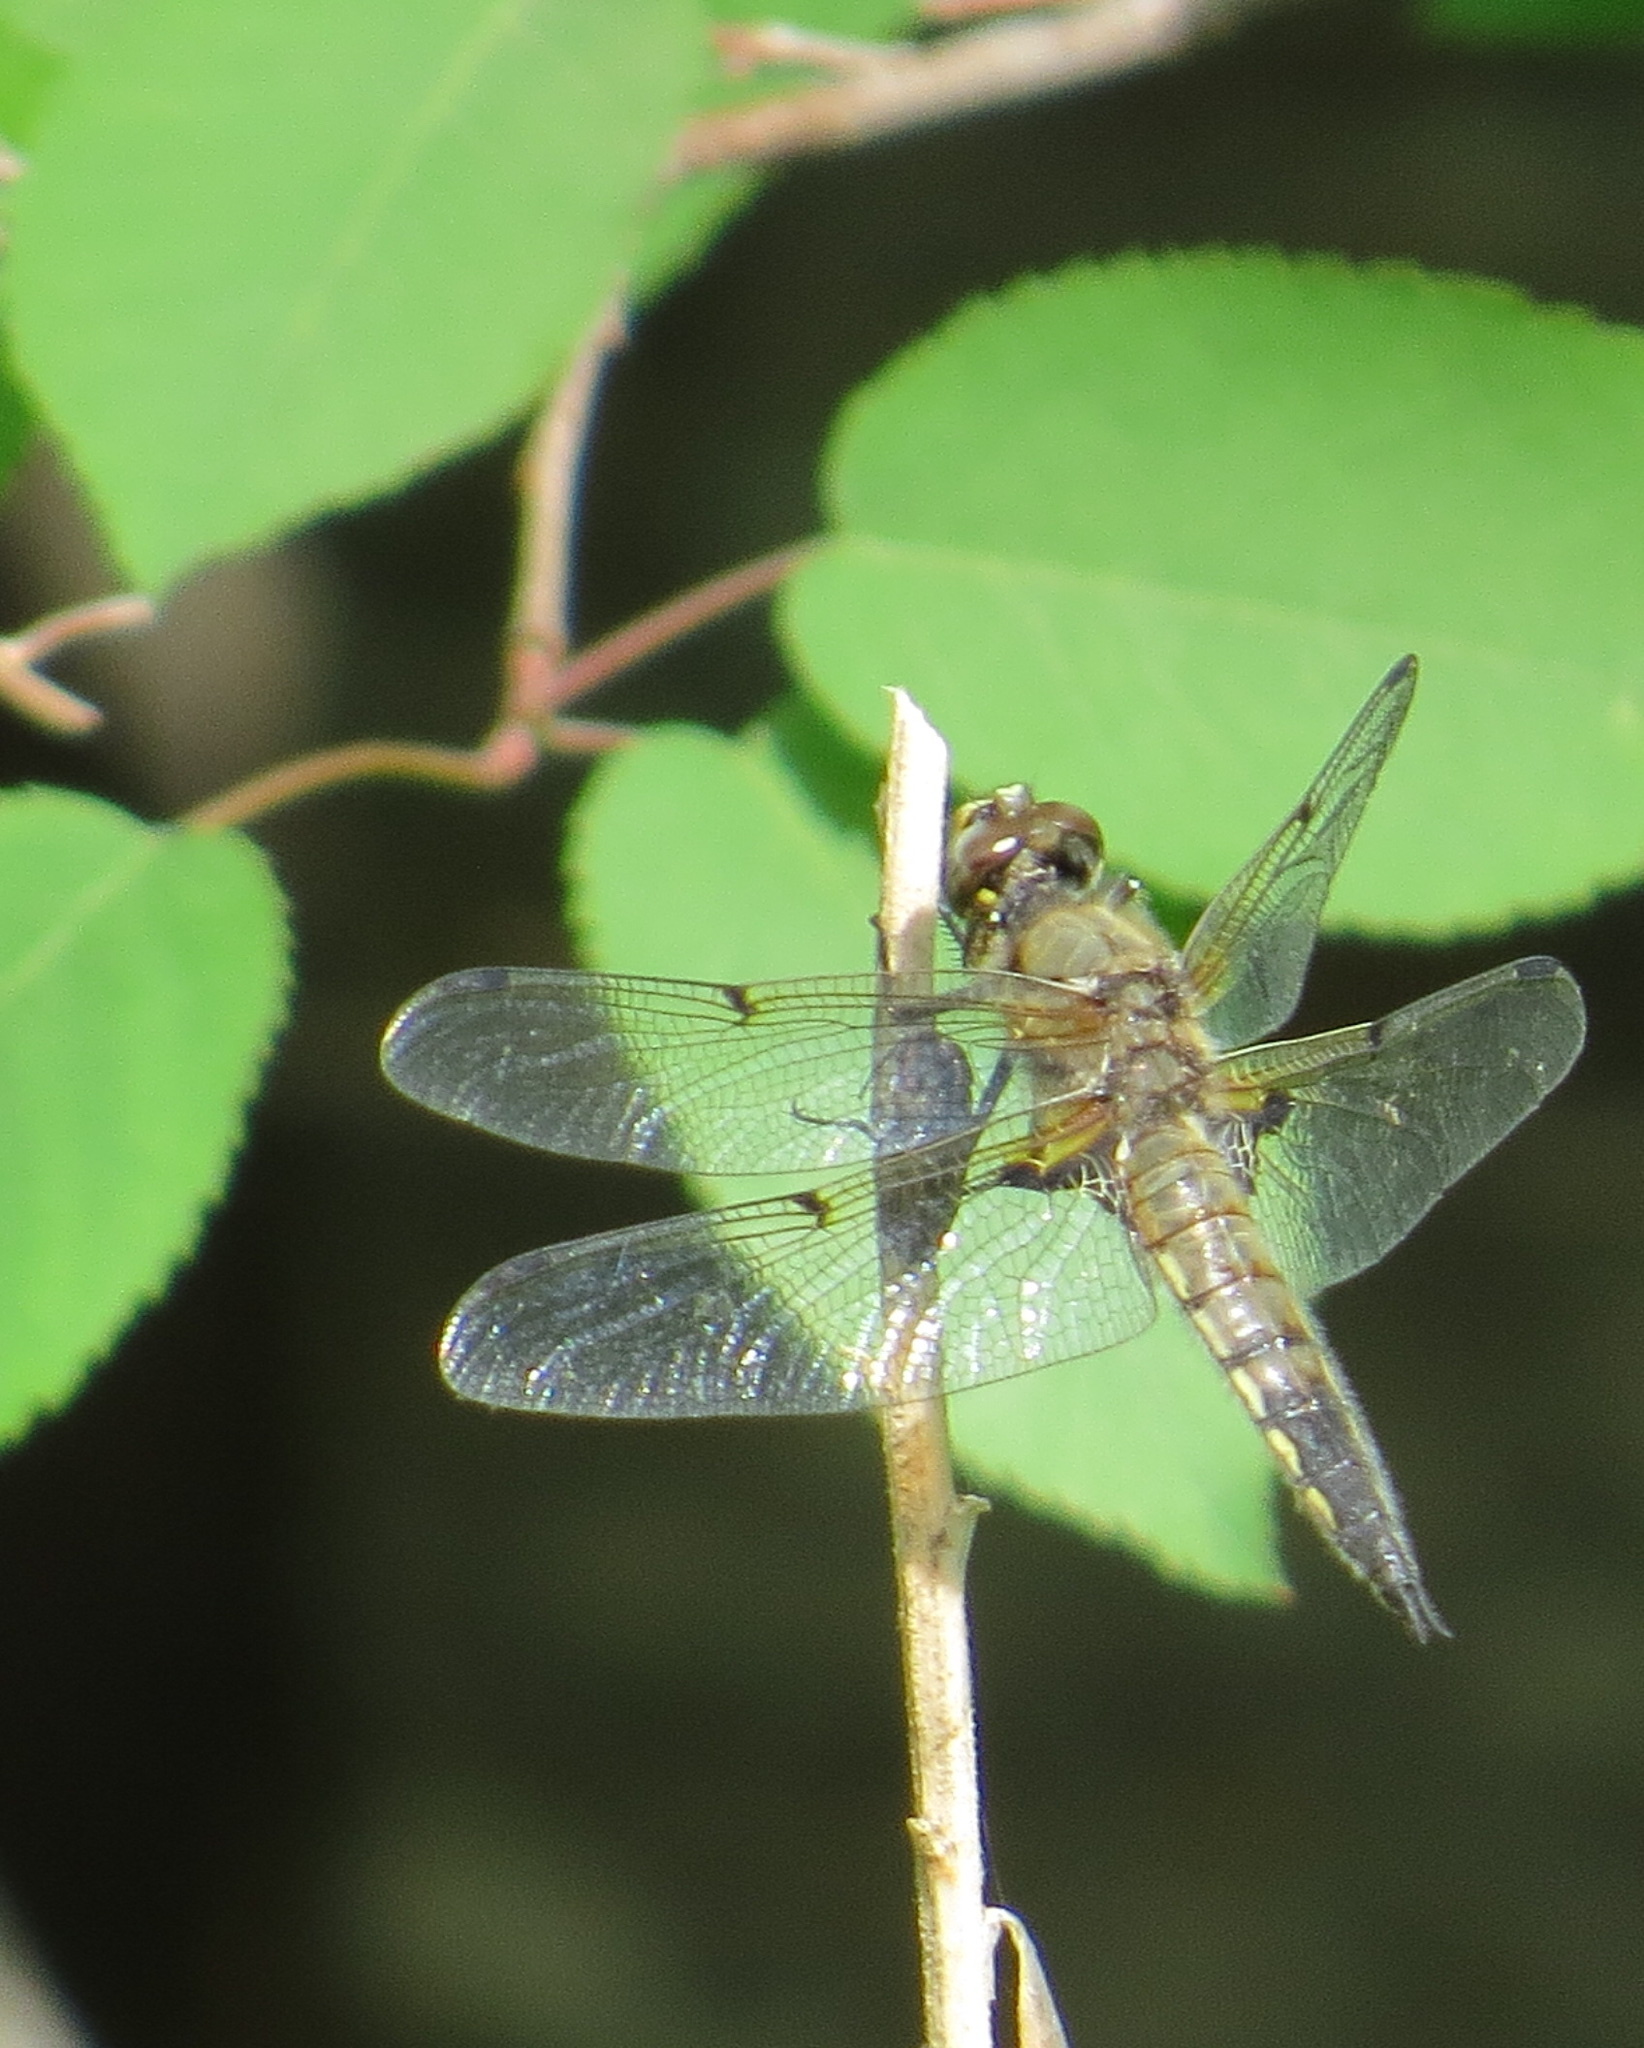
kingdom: Animalia
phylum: Arthropoda
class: Insecta
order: Odonata
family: Libellulidae
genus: Libellula
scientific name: Libellula quadrimaculata
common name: Four-spotted chaser
